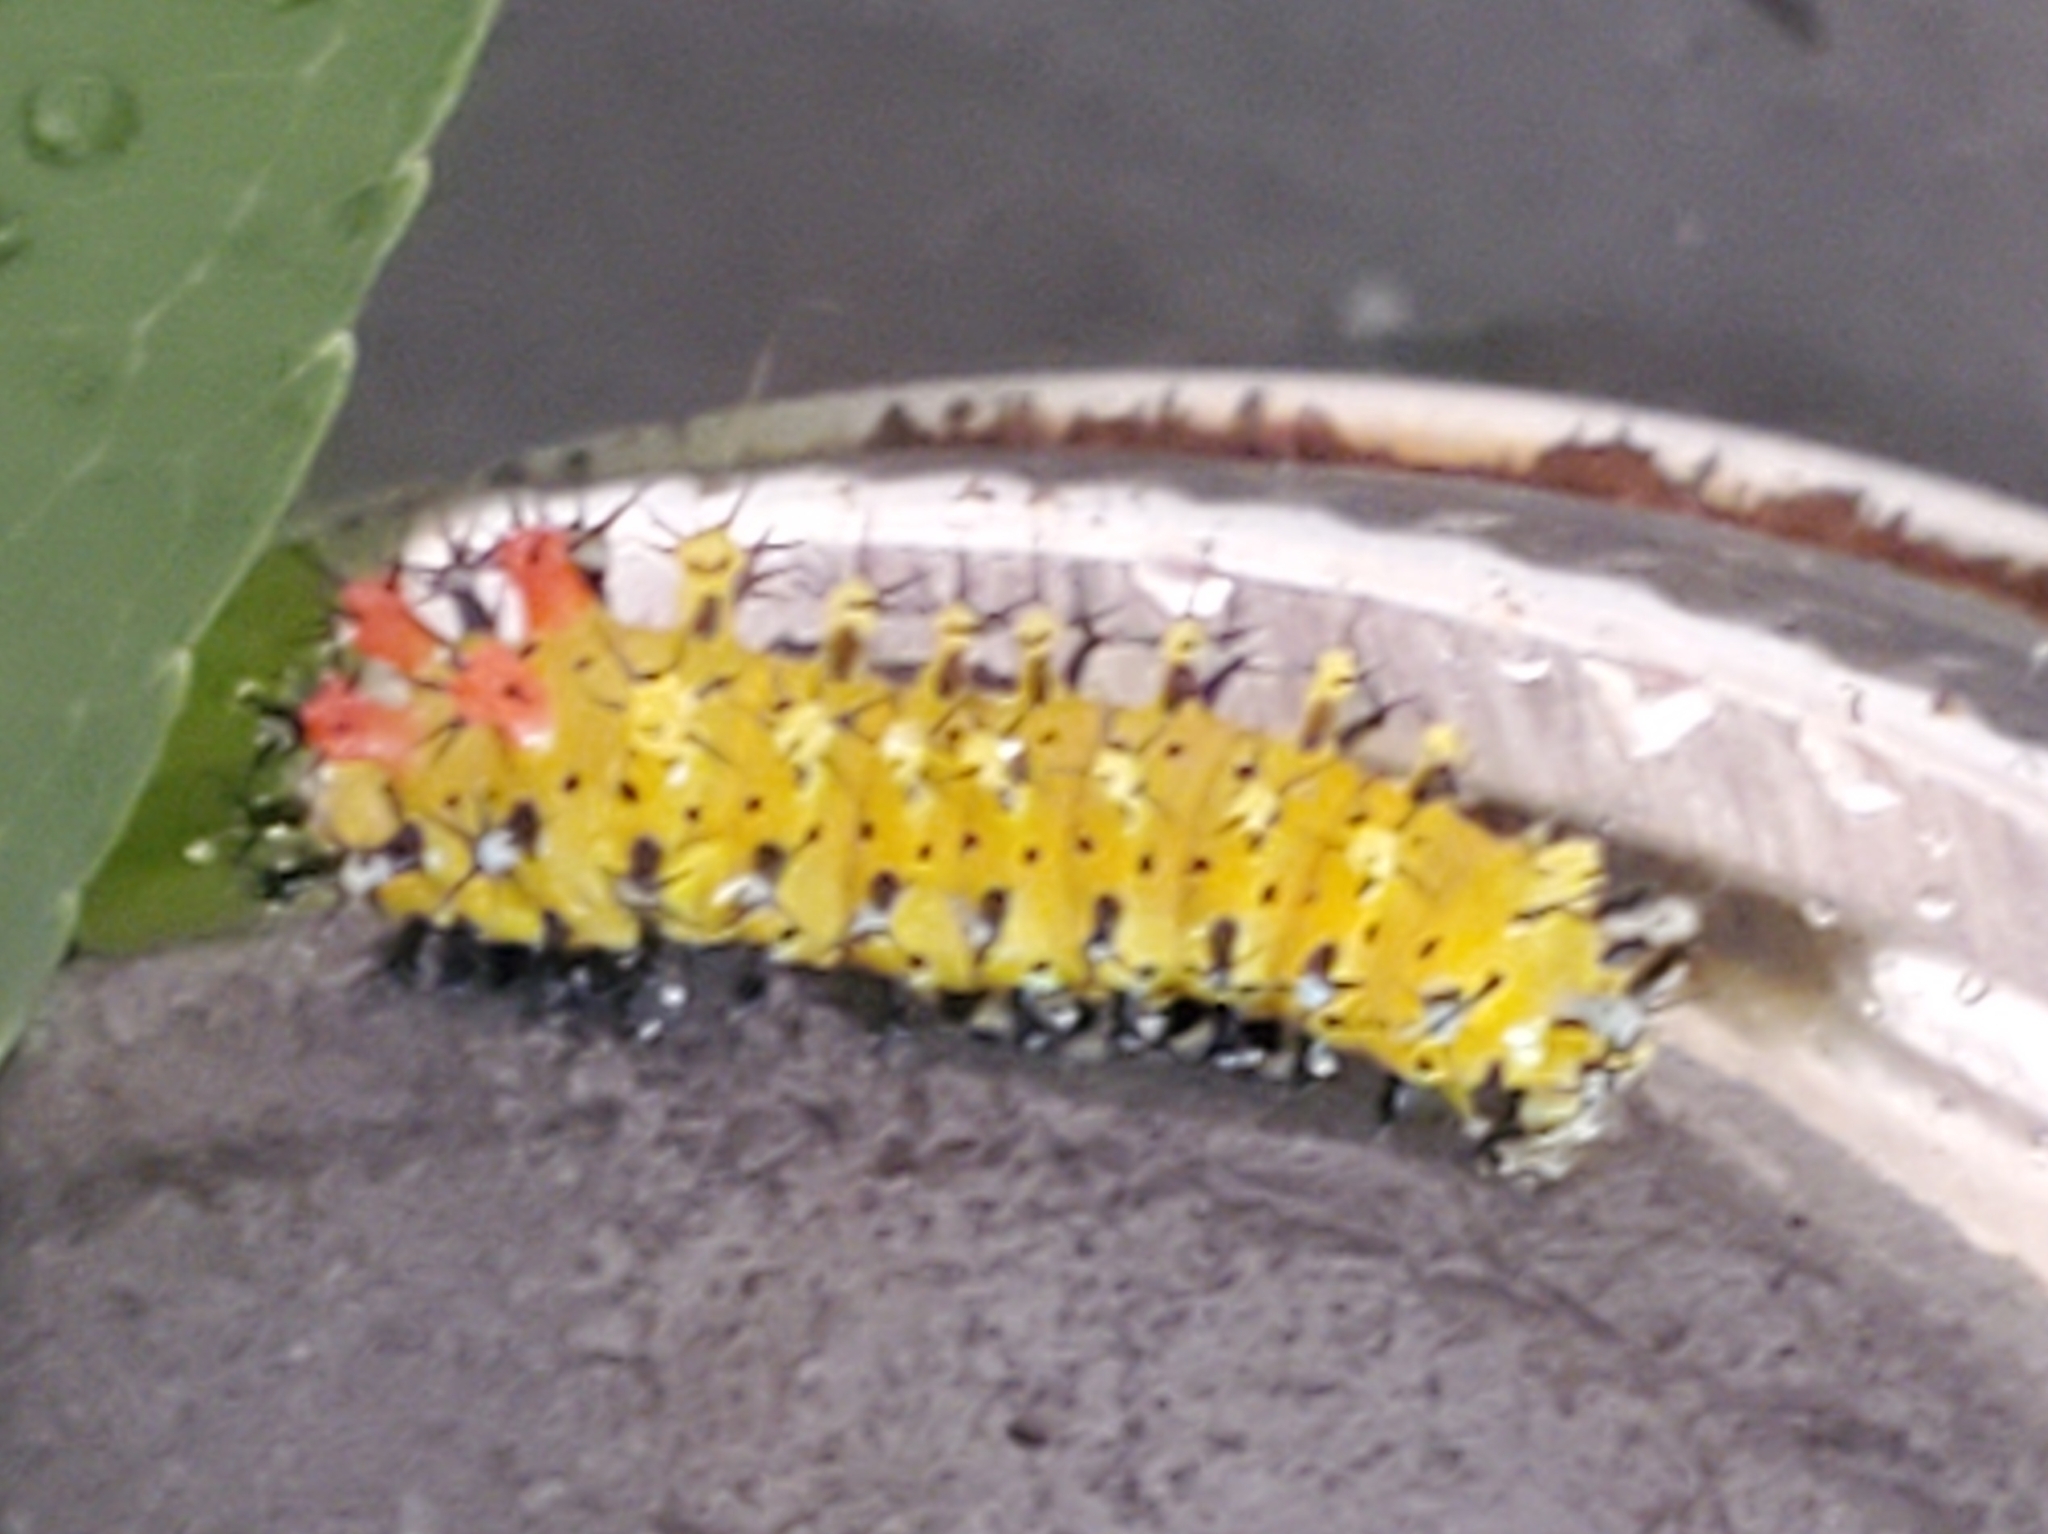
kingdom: Animalia
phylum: Arthropoda
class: Insecta
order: Lepidoptera
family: Saturniidae
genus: Hyalophora
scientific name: Hyalophora cecropia
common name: Cecropia silkmoth
